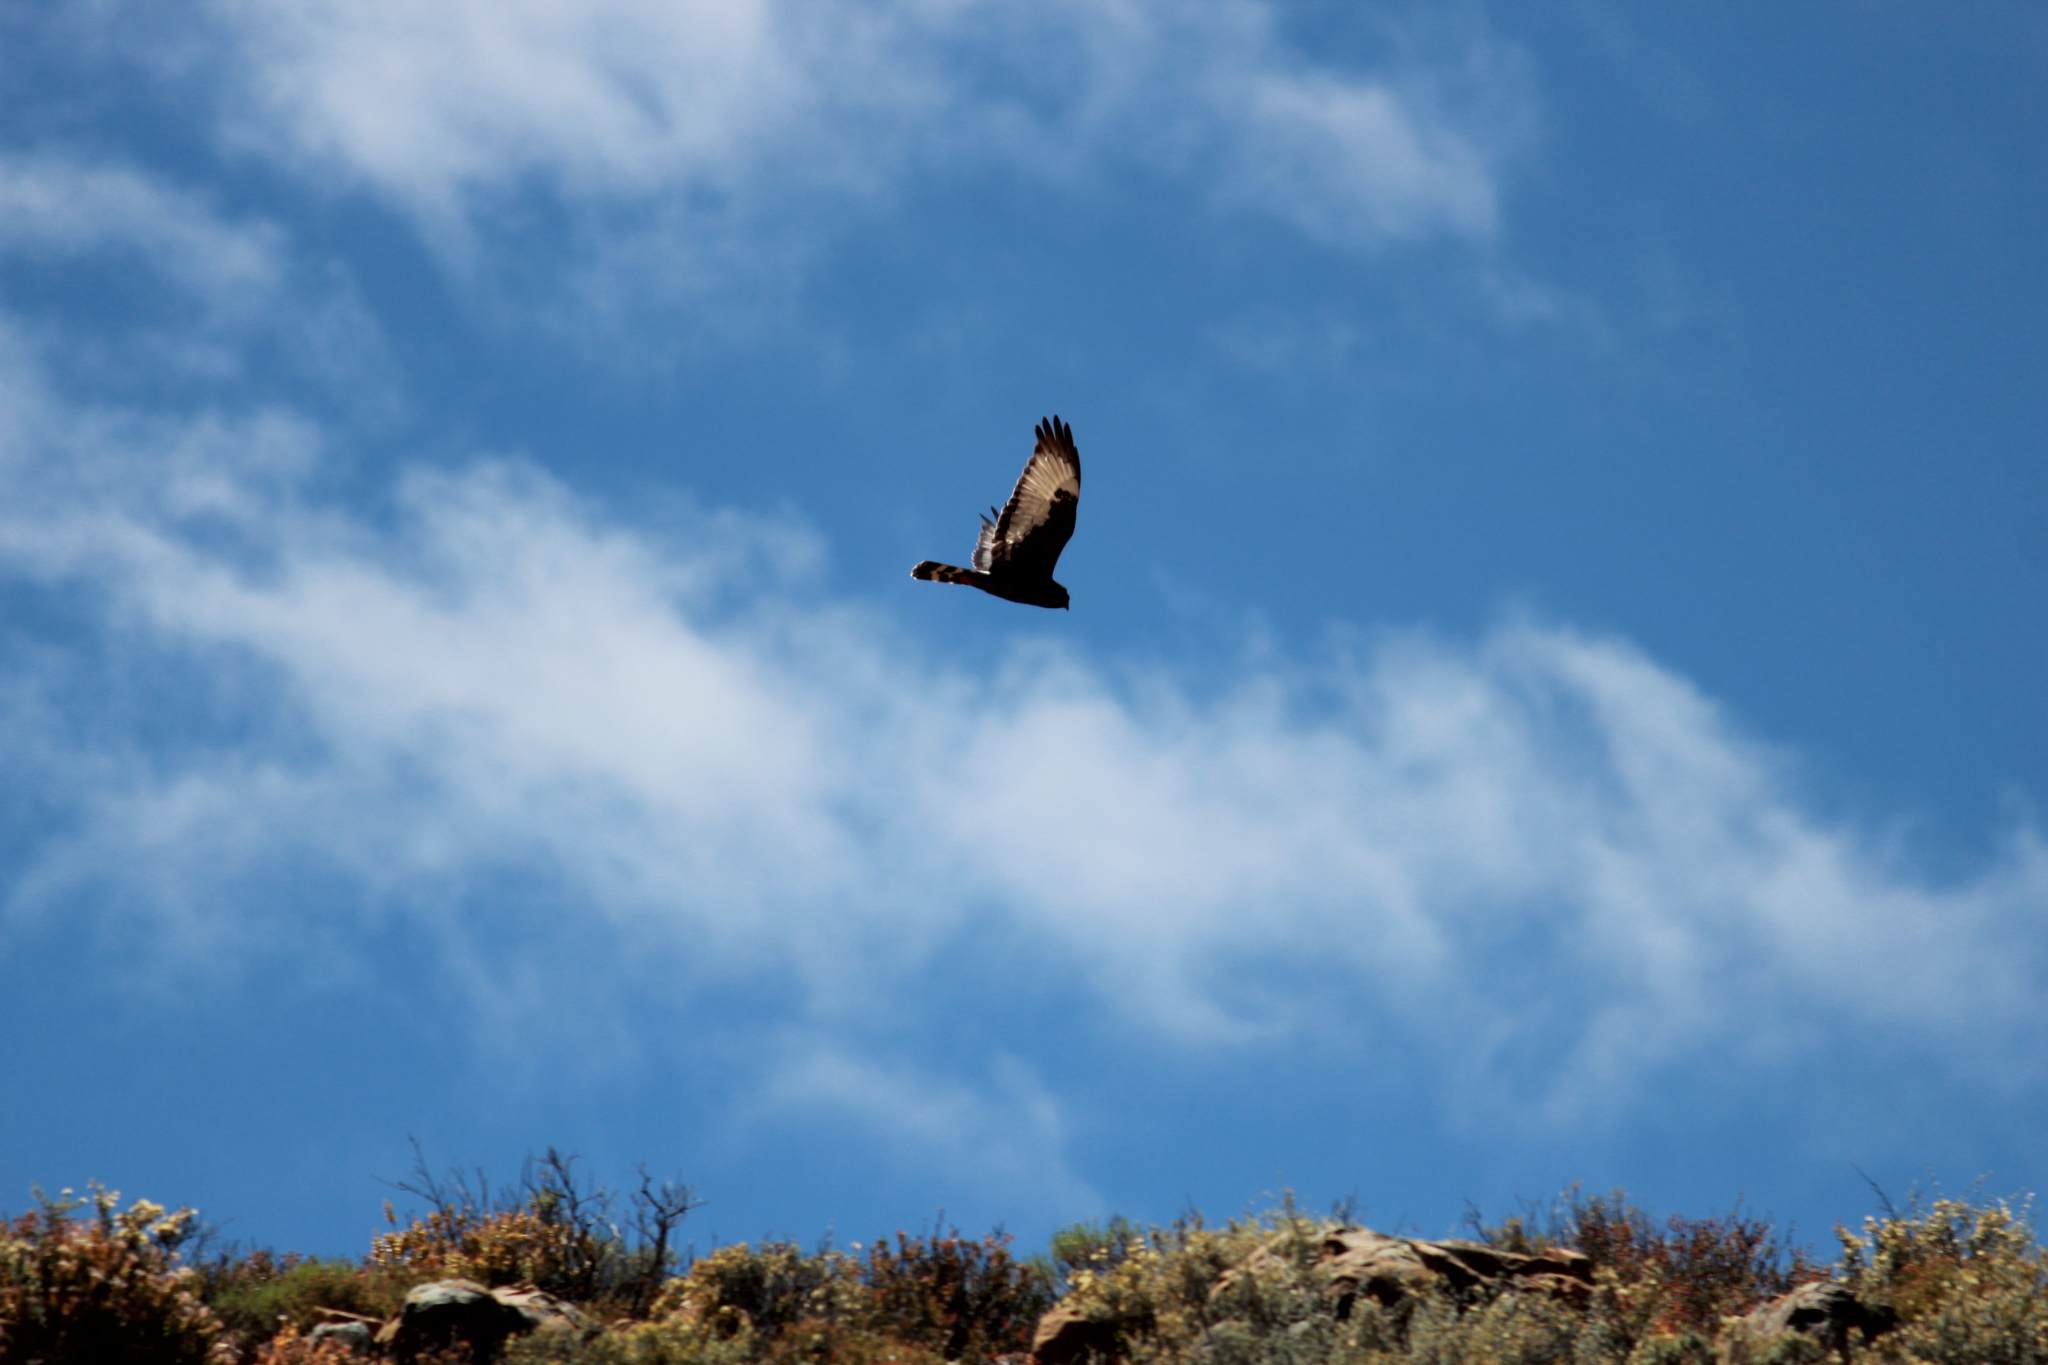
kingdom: Animalia
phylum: Chordata
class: Aves
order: Accipitriformes
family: Accipitridae
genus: Circus
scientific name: Circus maurus
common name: Black harrier
